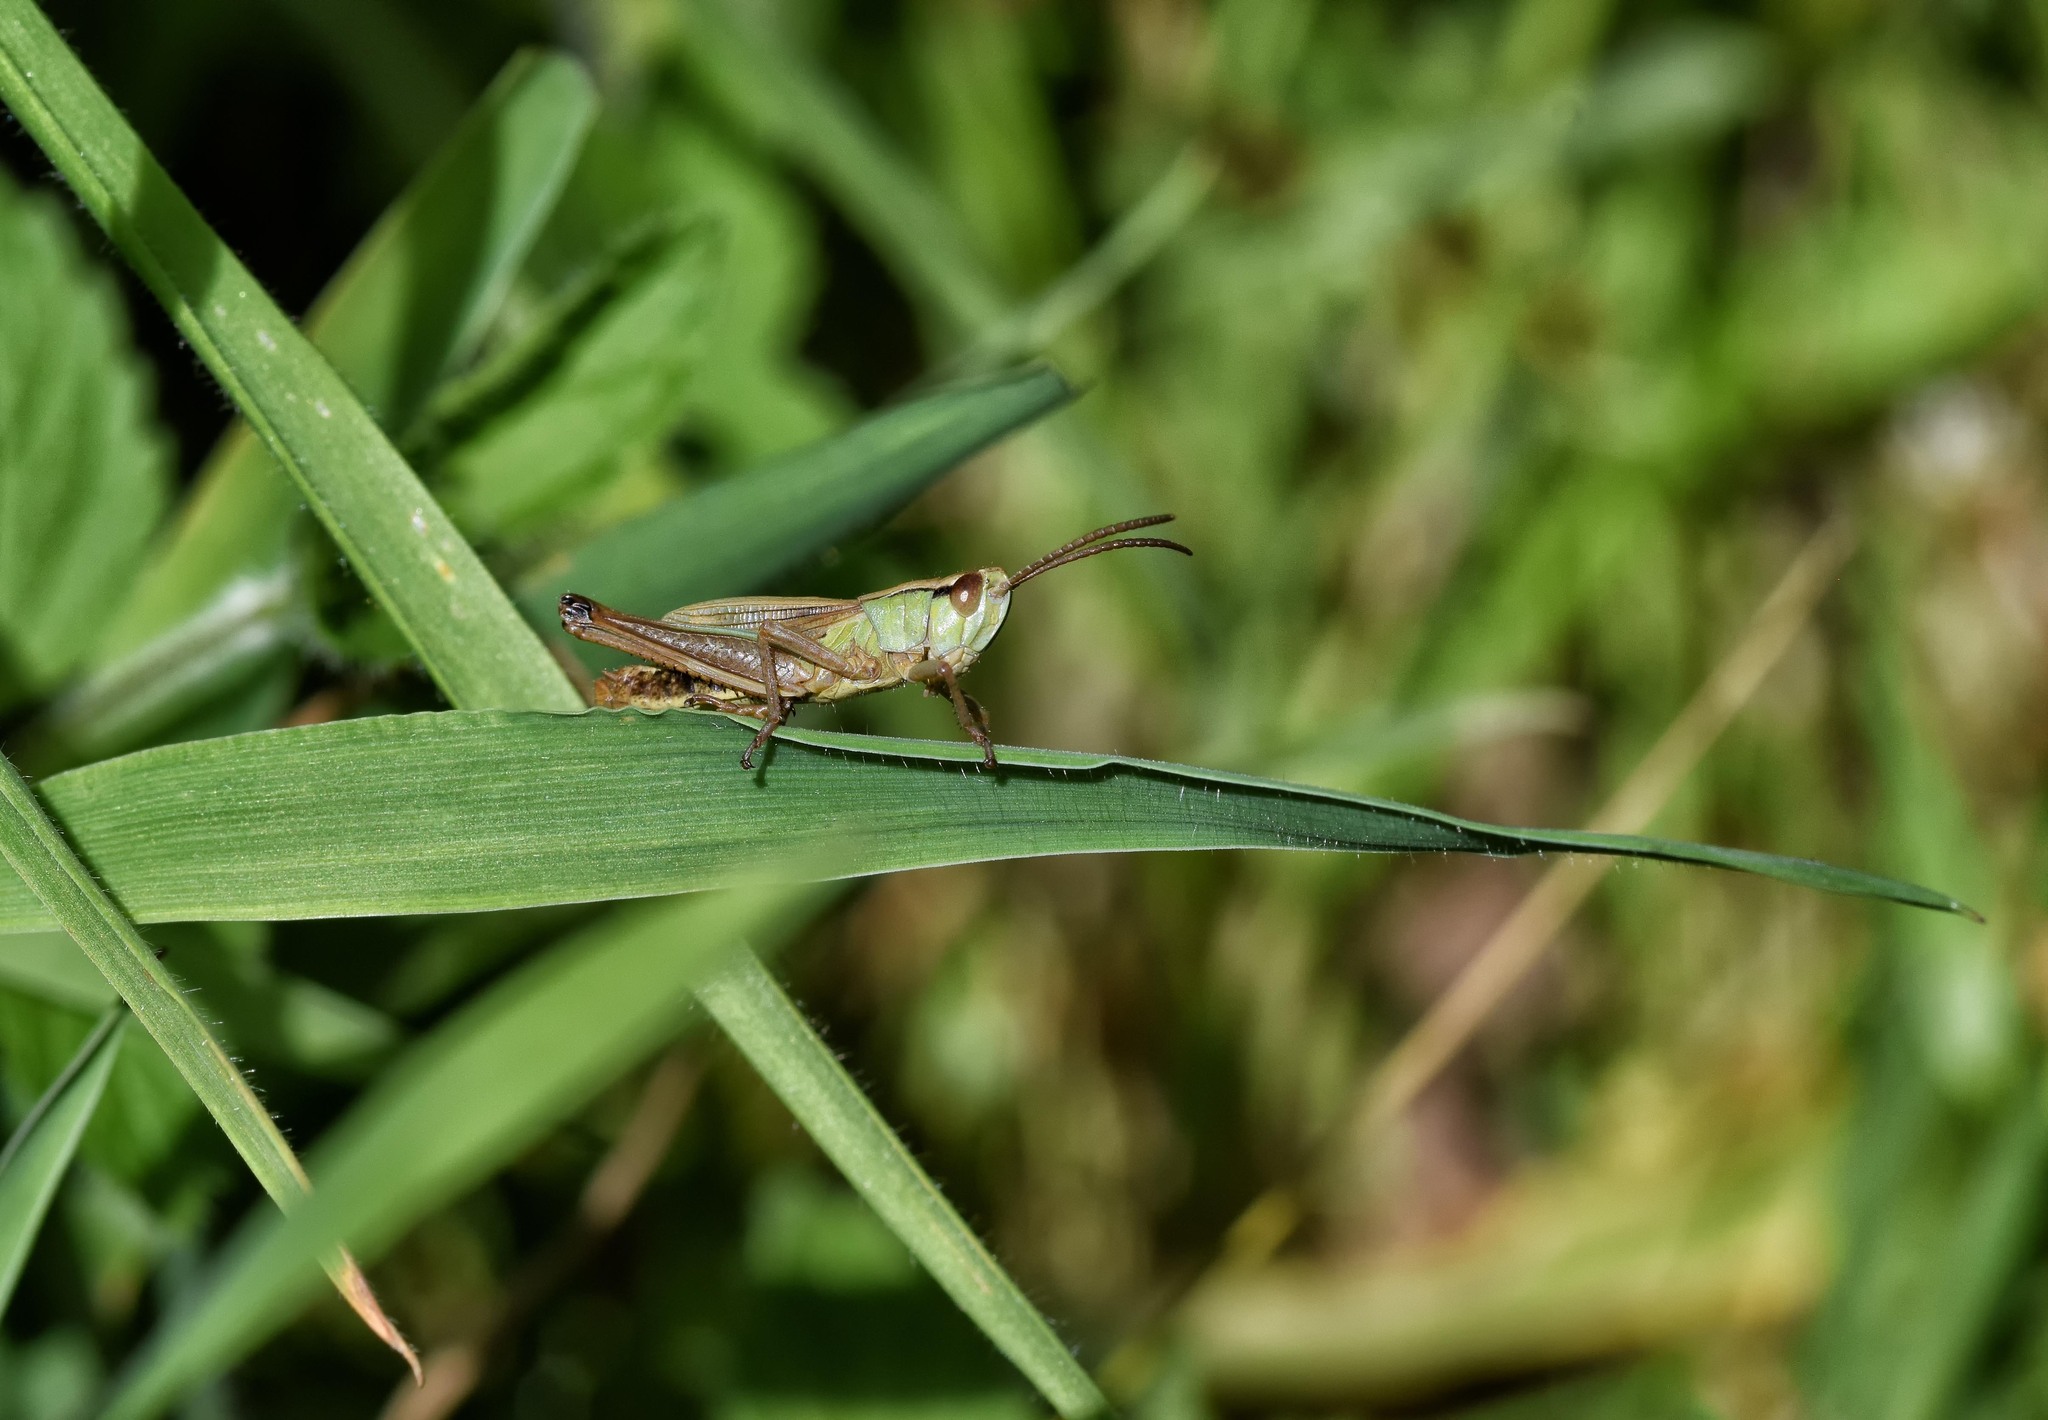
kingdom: Animalia
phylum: Arthropoda
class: Insecta
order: Orthoptera
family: Acrididae
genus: Pseudochorthippus
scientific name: Pseudochorthippus parallelus
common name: Meadow grasshopper
